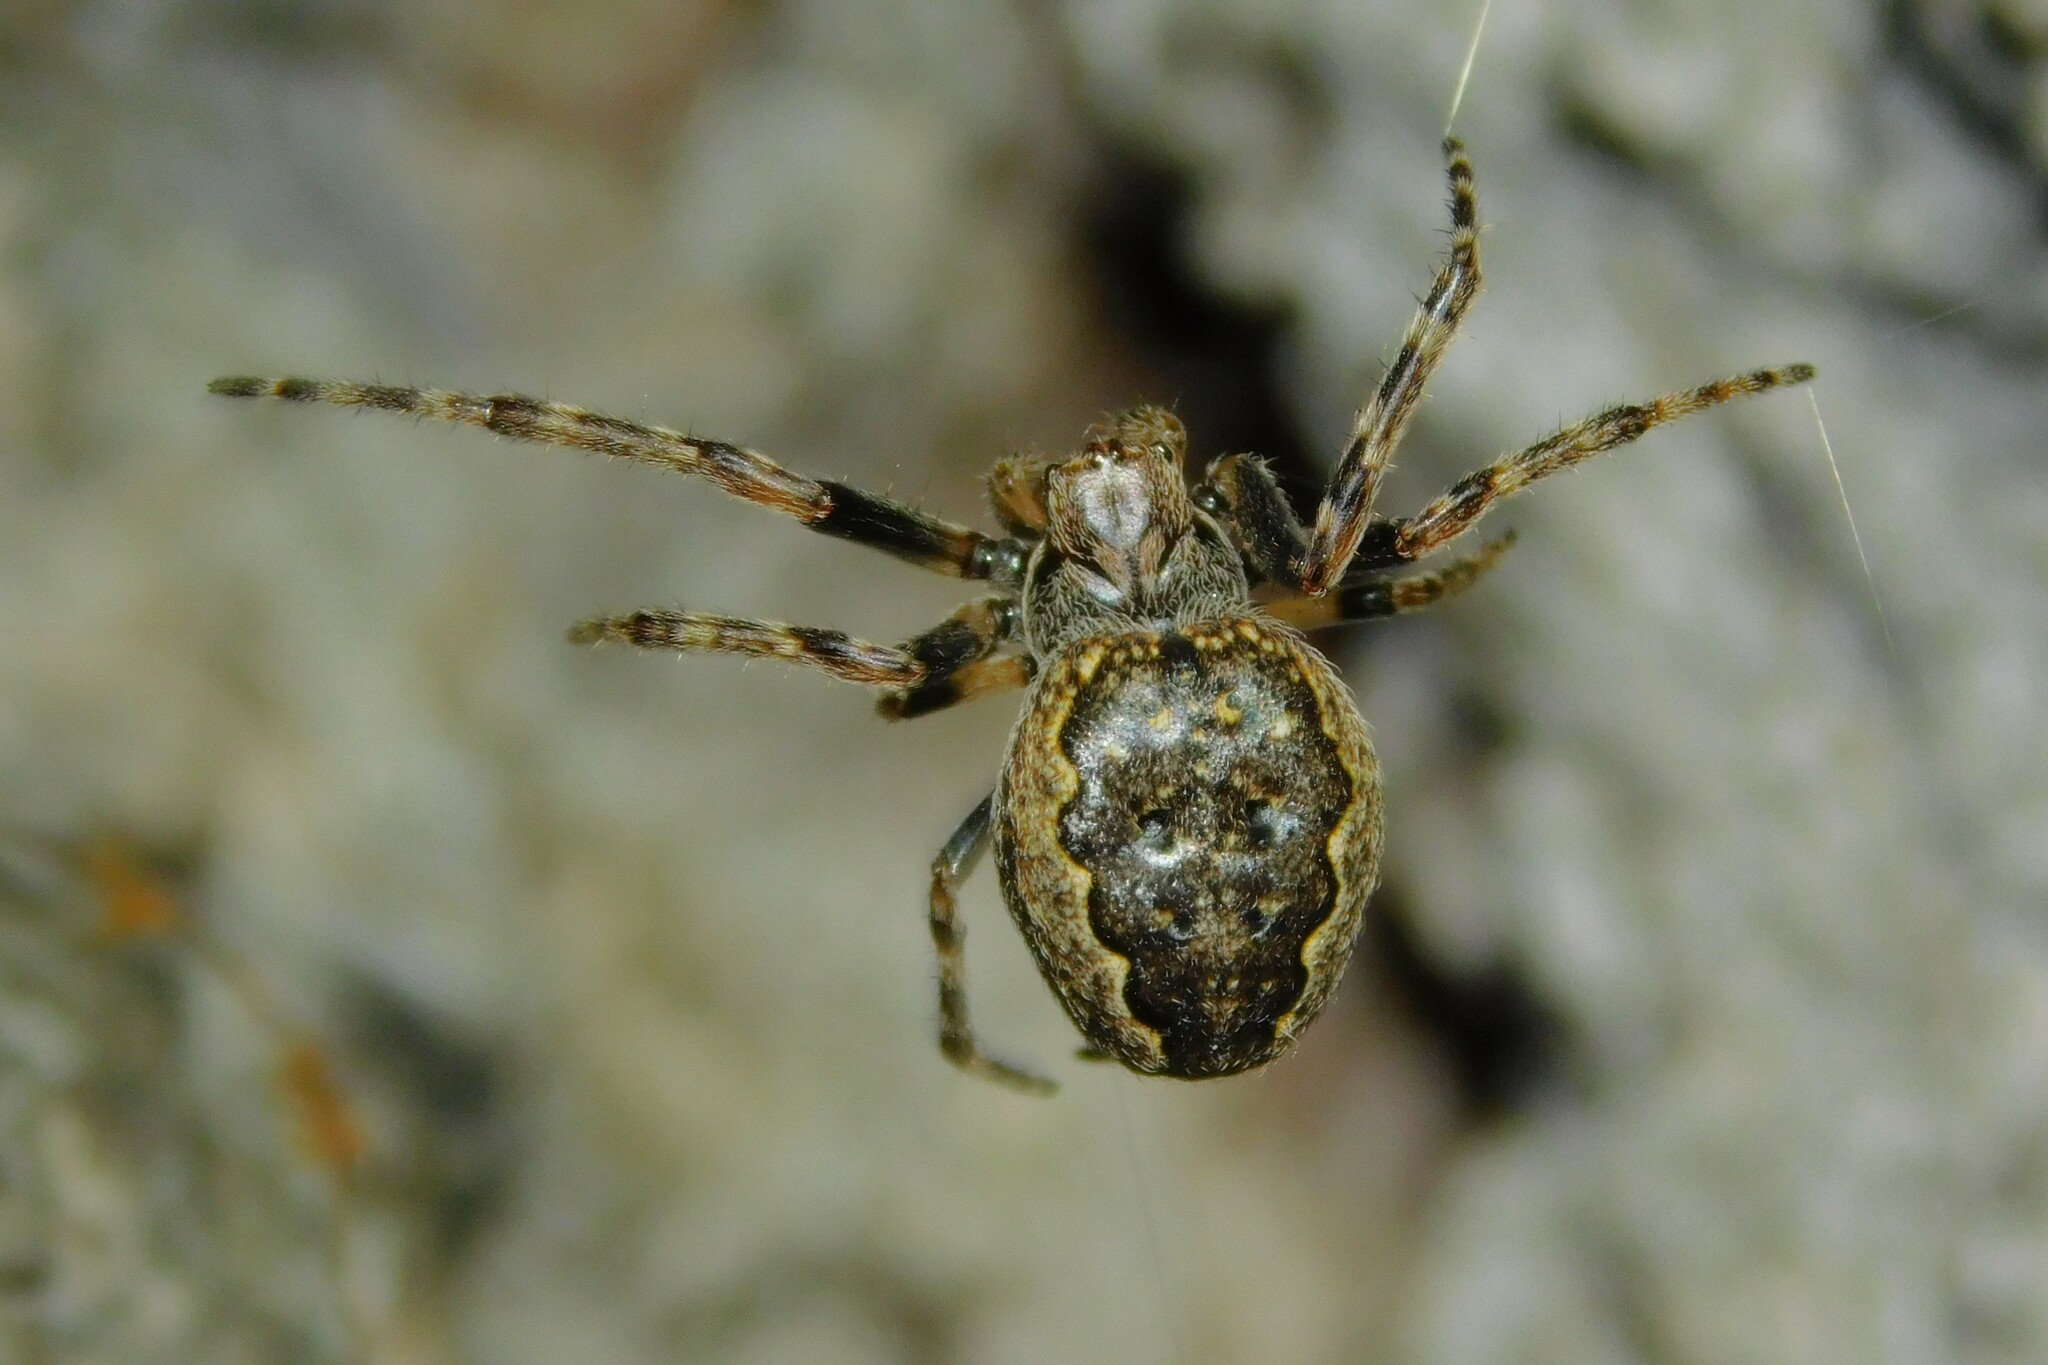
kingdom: Animalia
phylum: Arthropoda
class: Arachnida
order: Araneae
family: Araneidae
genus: Nuctenea
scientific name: Nuctenea umbratica
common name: Toad spider
